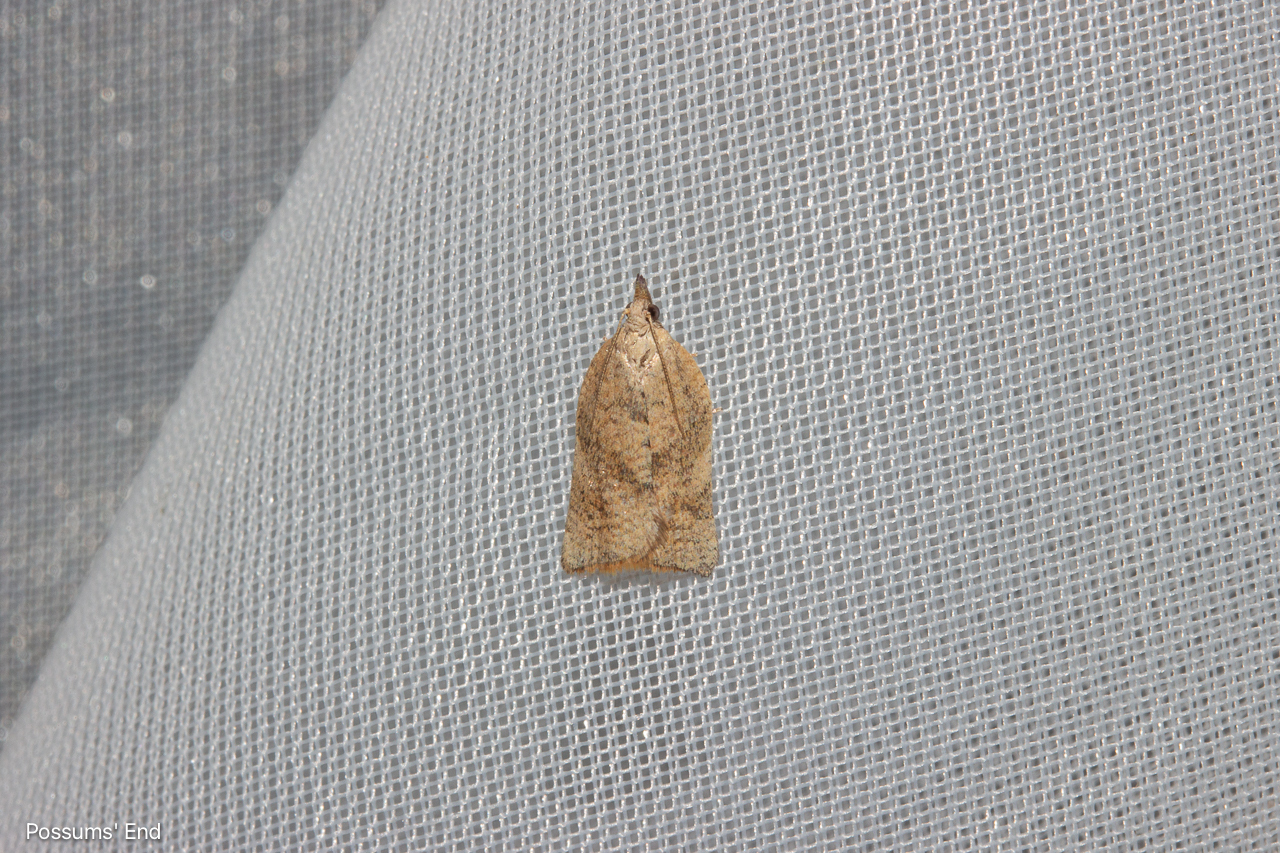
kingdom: Animalia
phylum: Arthropoda
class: Insecta
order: Lepidoptera
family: Tortricidae
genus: Catamacta
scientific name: Catamacta gavisana
